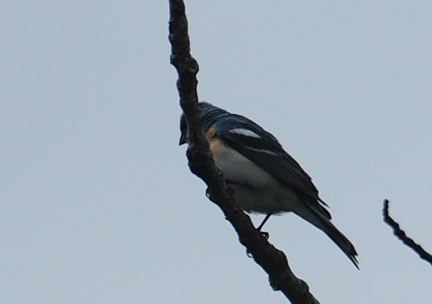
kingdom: Animalia
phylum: Chordata
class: Aves
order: Passeriformes
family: Cardinalidae
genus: Passerina
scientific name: Passerina amoena
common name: Lazuli bunting
